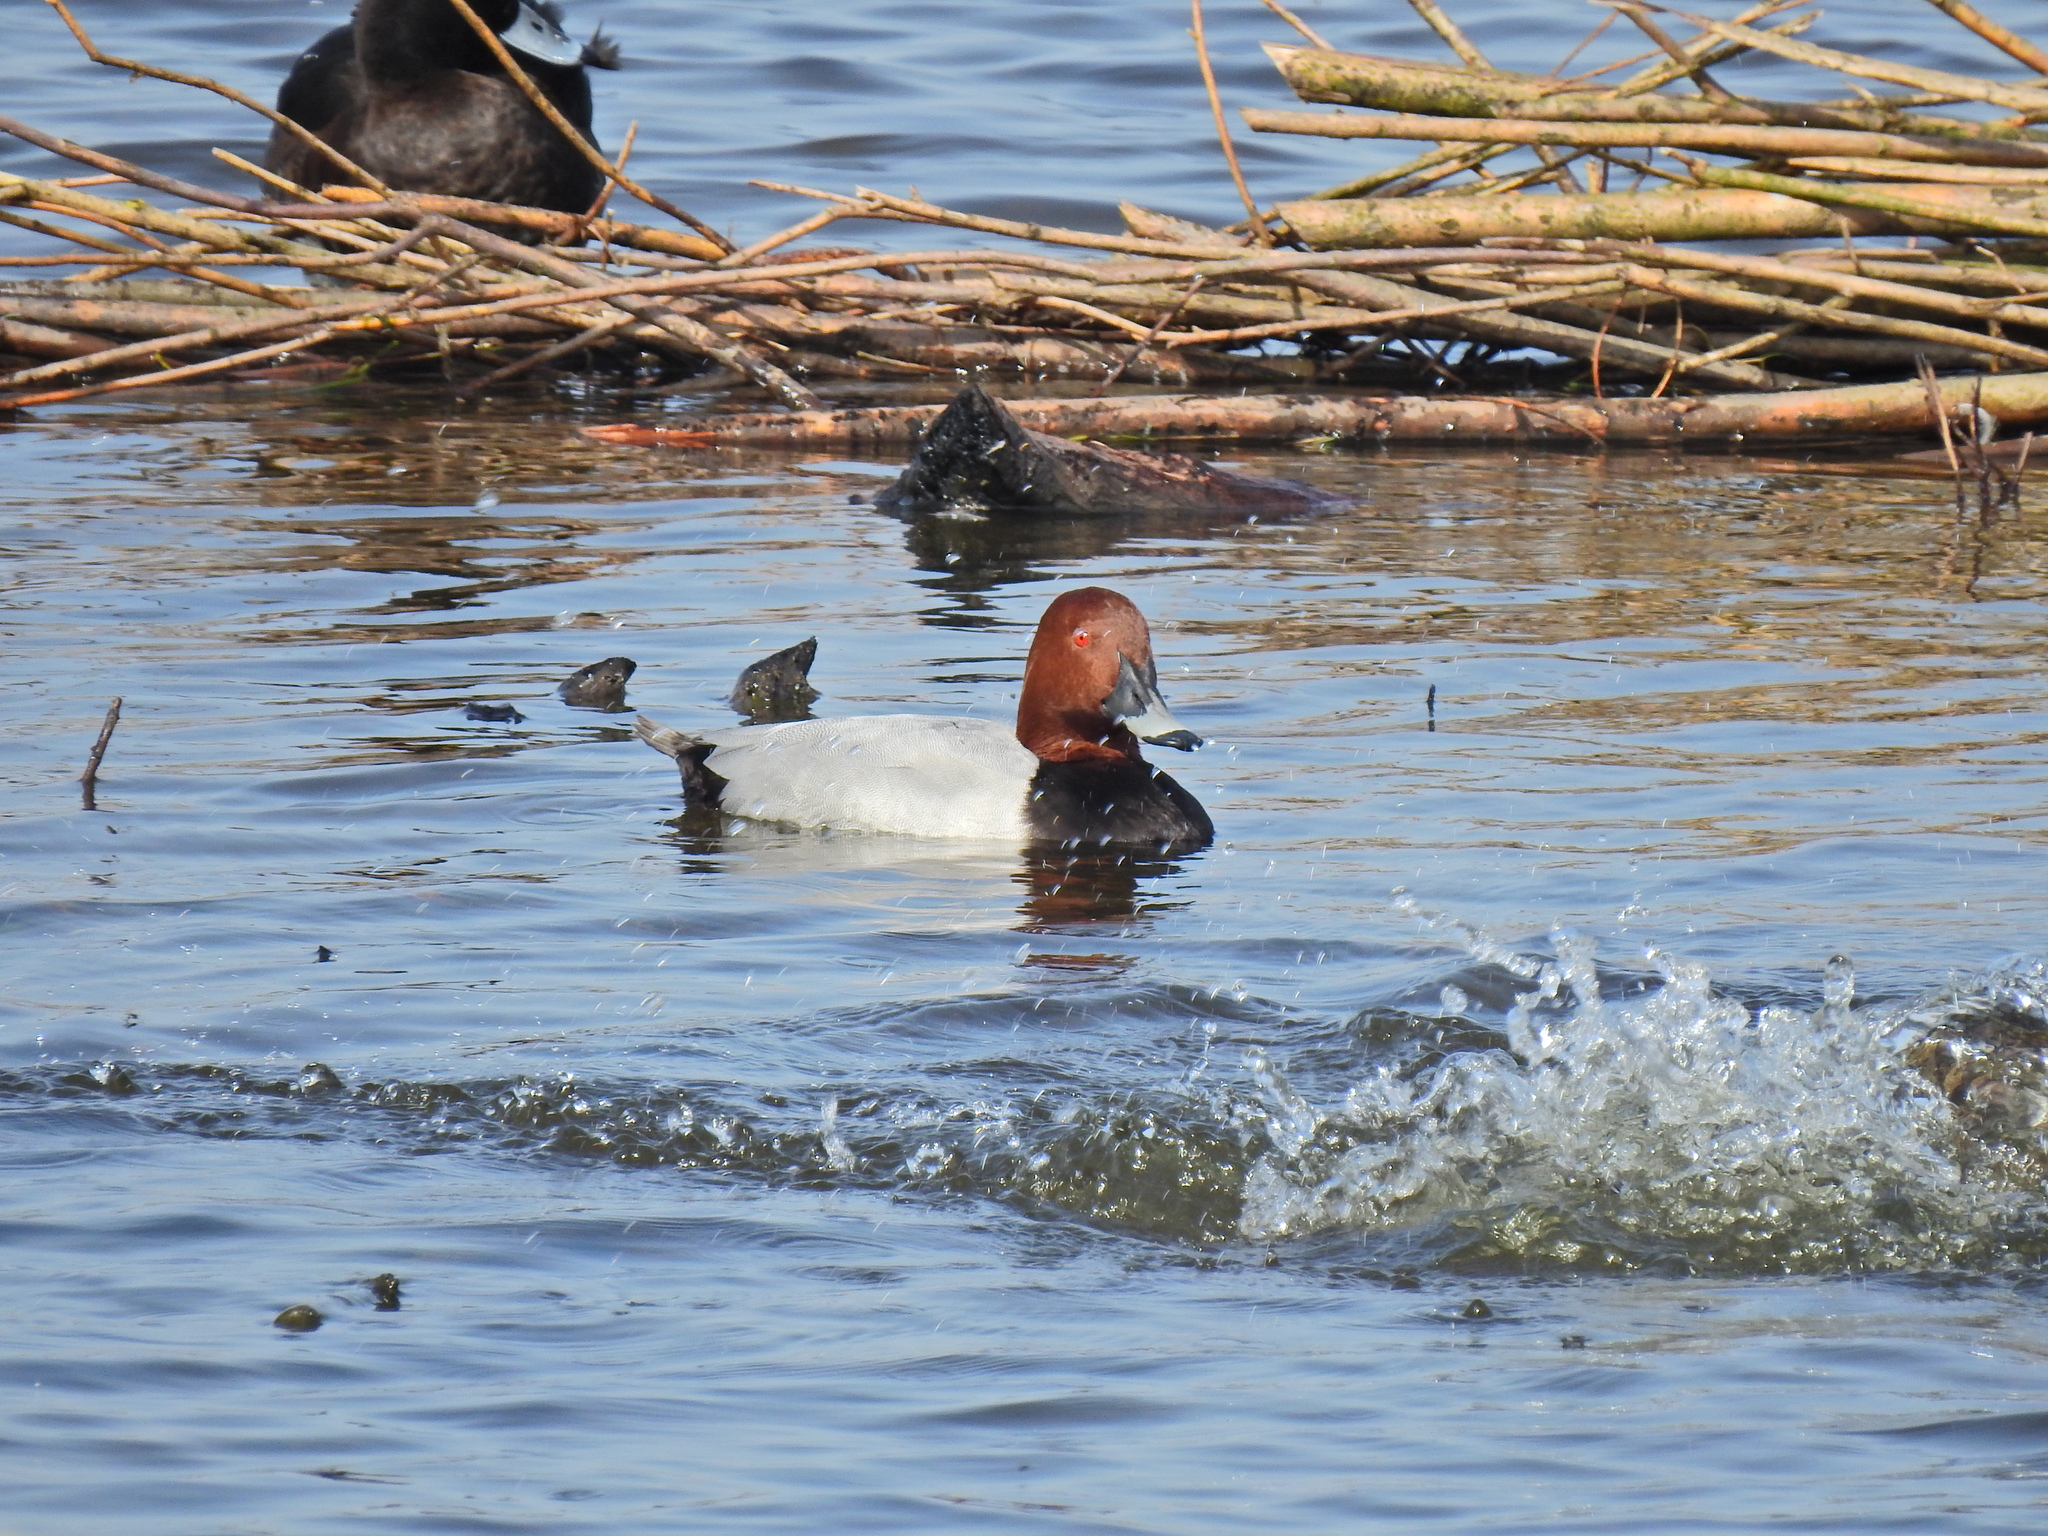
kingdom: Animalia
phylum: Chordata
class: Aves
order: Anseriformes
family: Anatidae
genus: Aythya
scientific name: Aythya ferina
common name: Common pochard
